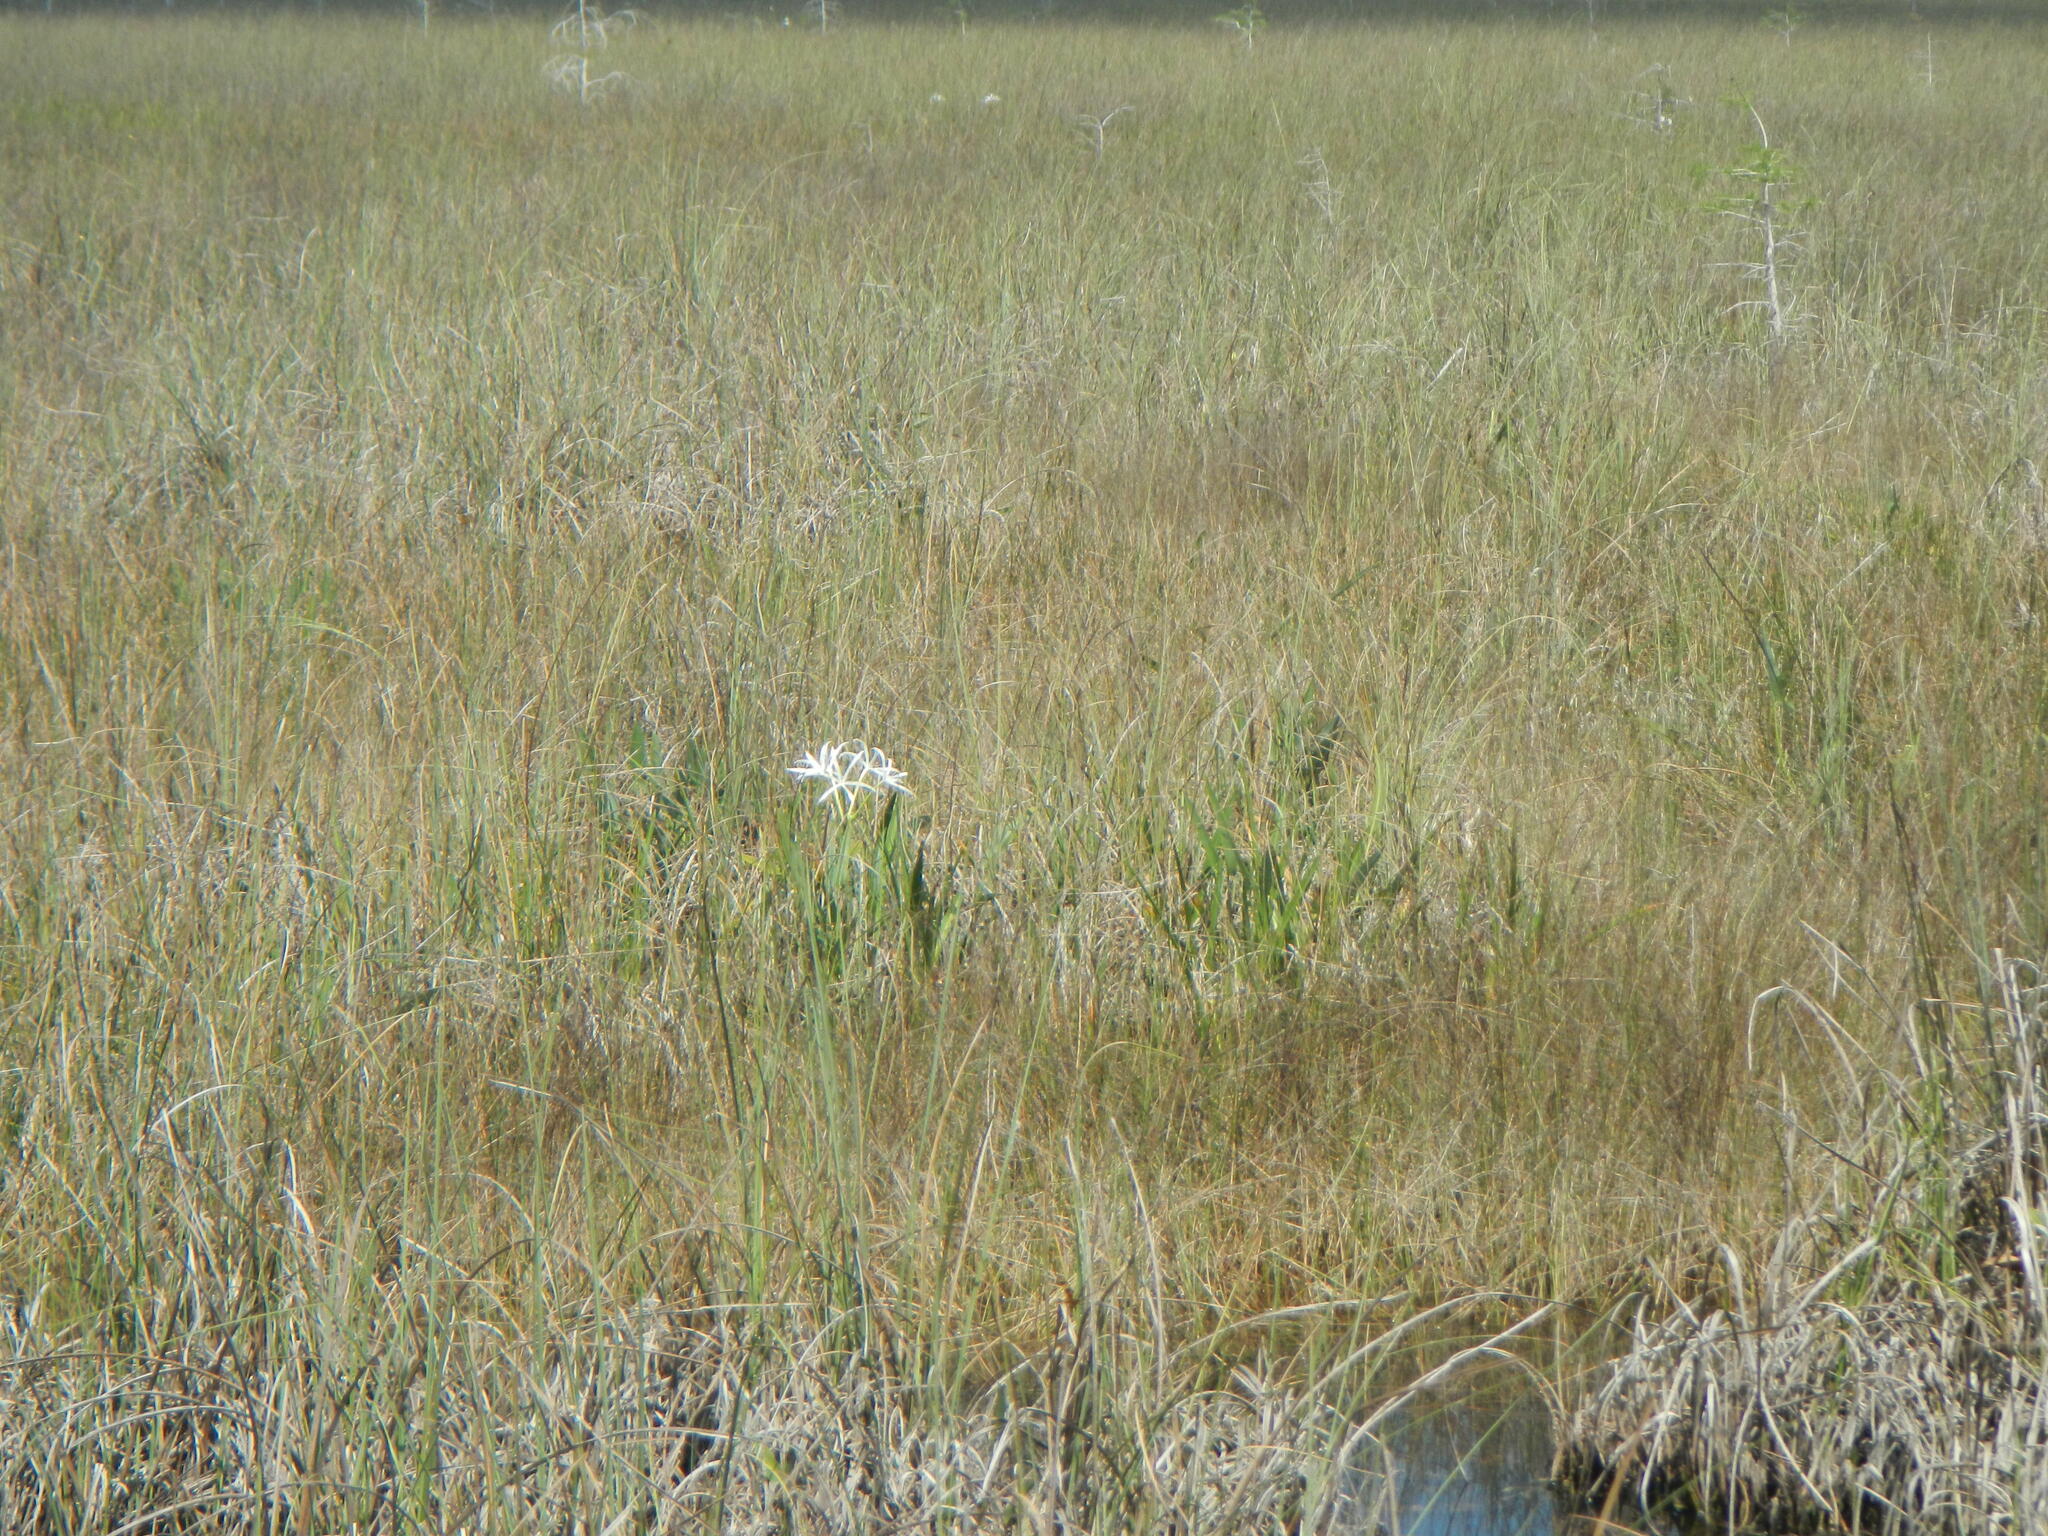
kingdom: Plantae
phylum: Tracheophyta
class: Liliopsida
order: Asparagales
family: Amaryllidaceae
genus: Crinum
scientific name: Crinum americanum
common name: Florida swamp-lily
